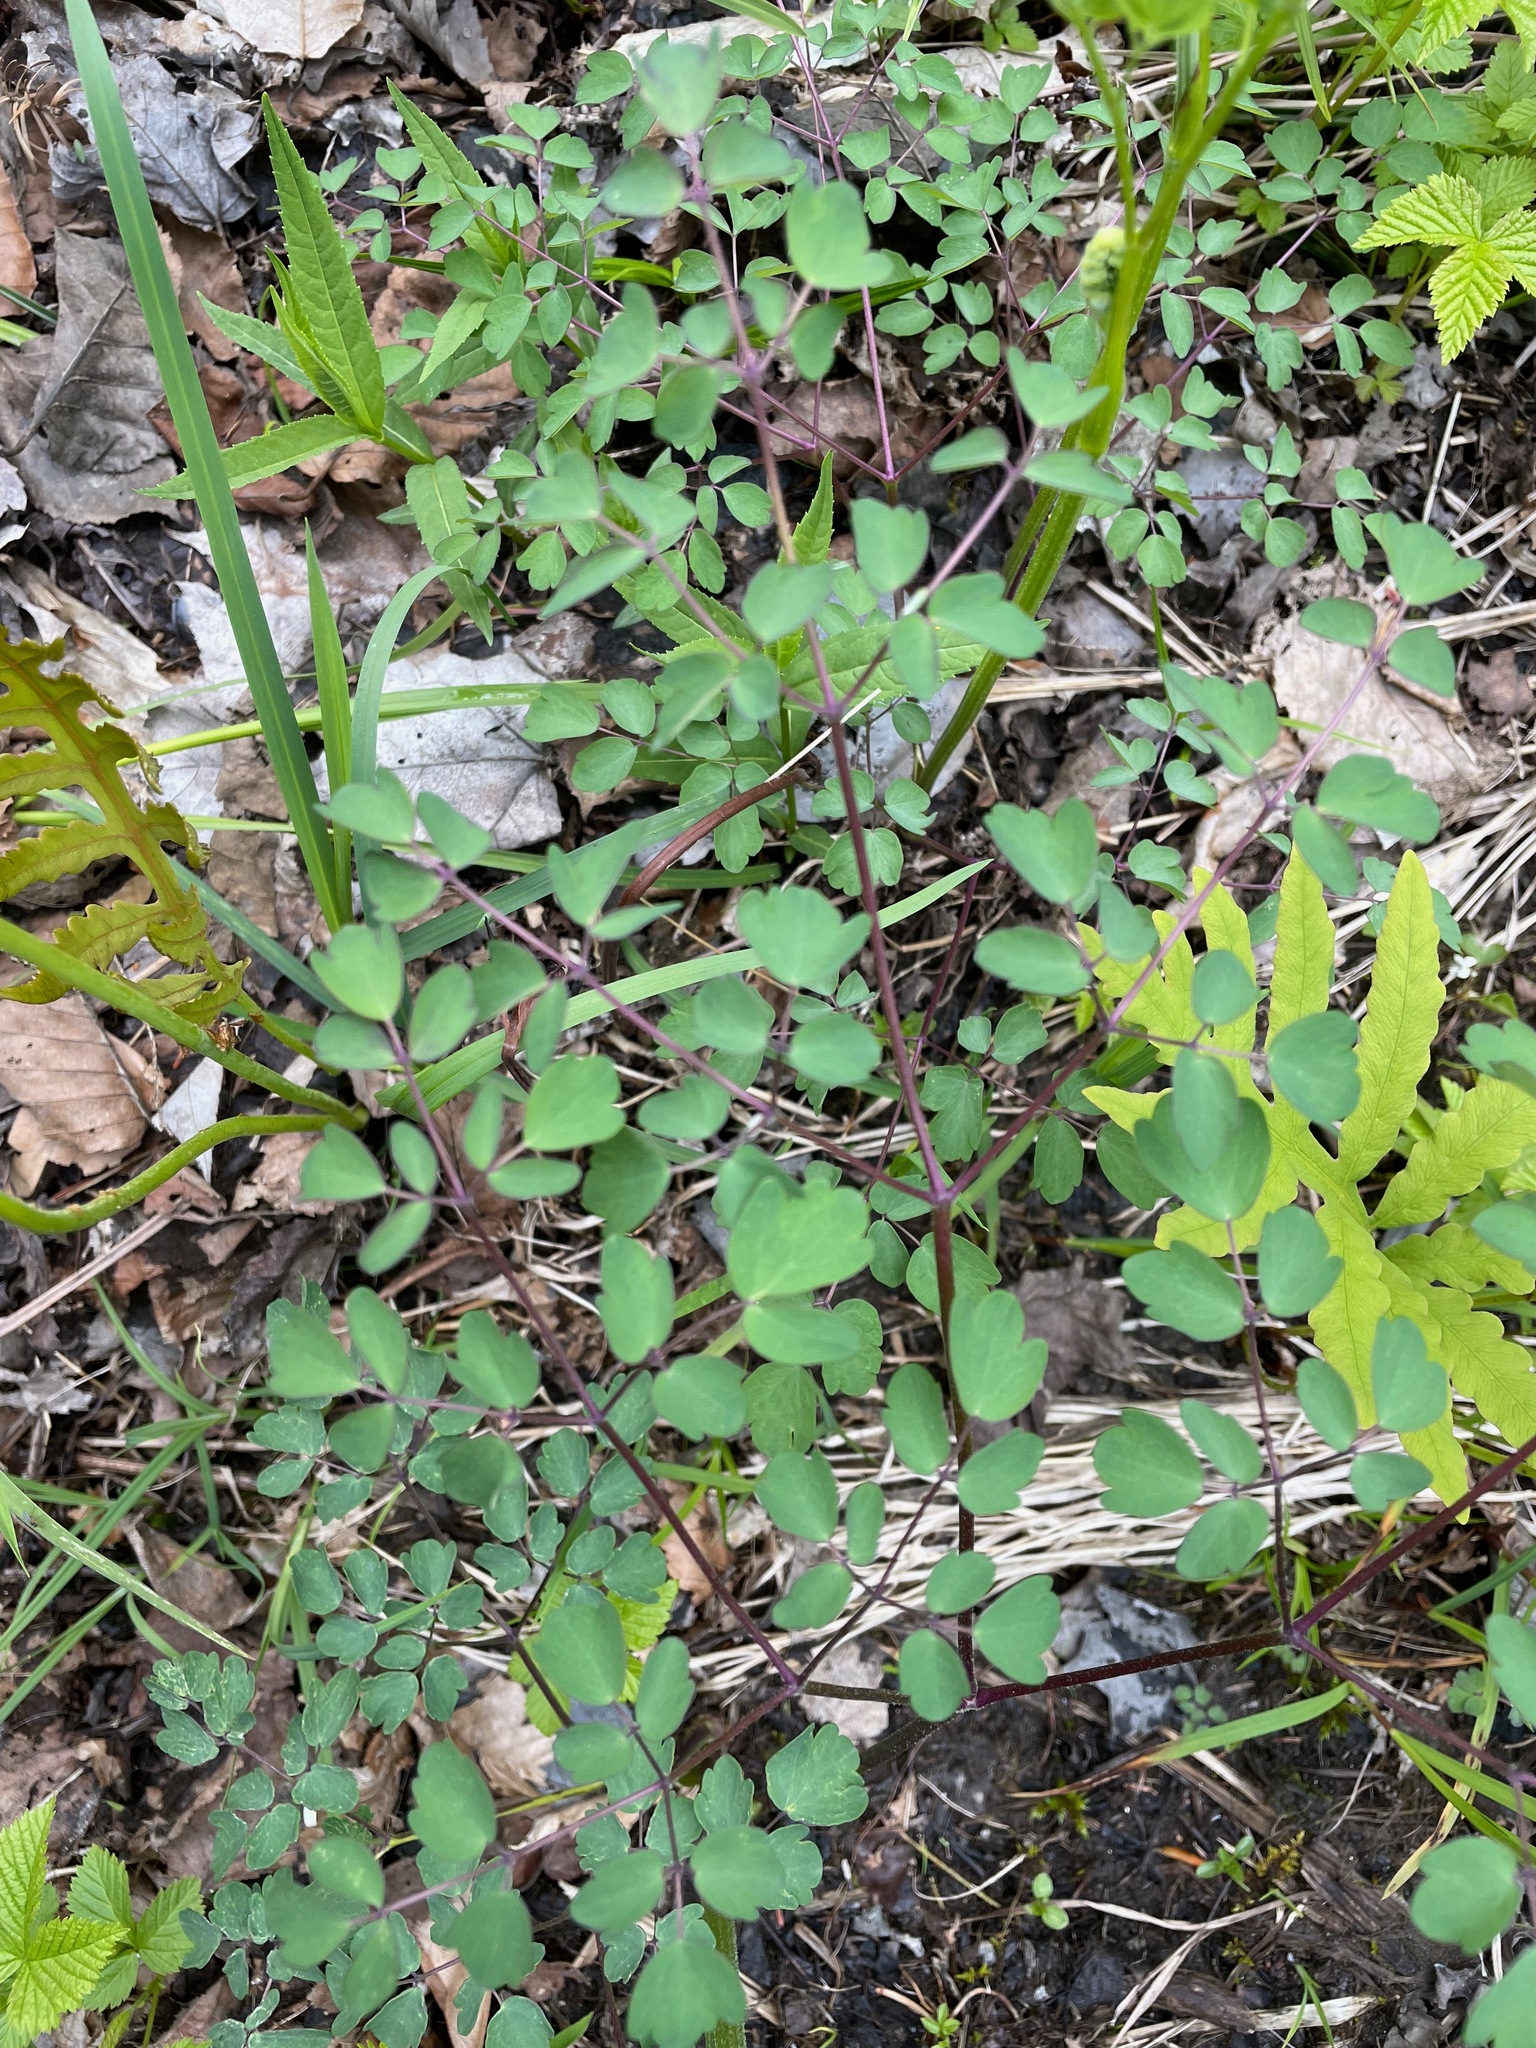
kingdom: Plantae
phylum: Tracheophyta
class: Magnoliopsida
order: Ranunculales
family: Ranunculaceae
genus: Thalictrum
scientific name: Thalictrum pubescens
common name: King-of-the-meadow
